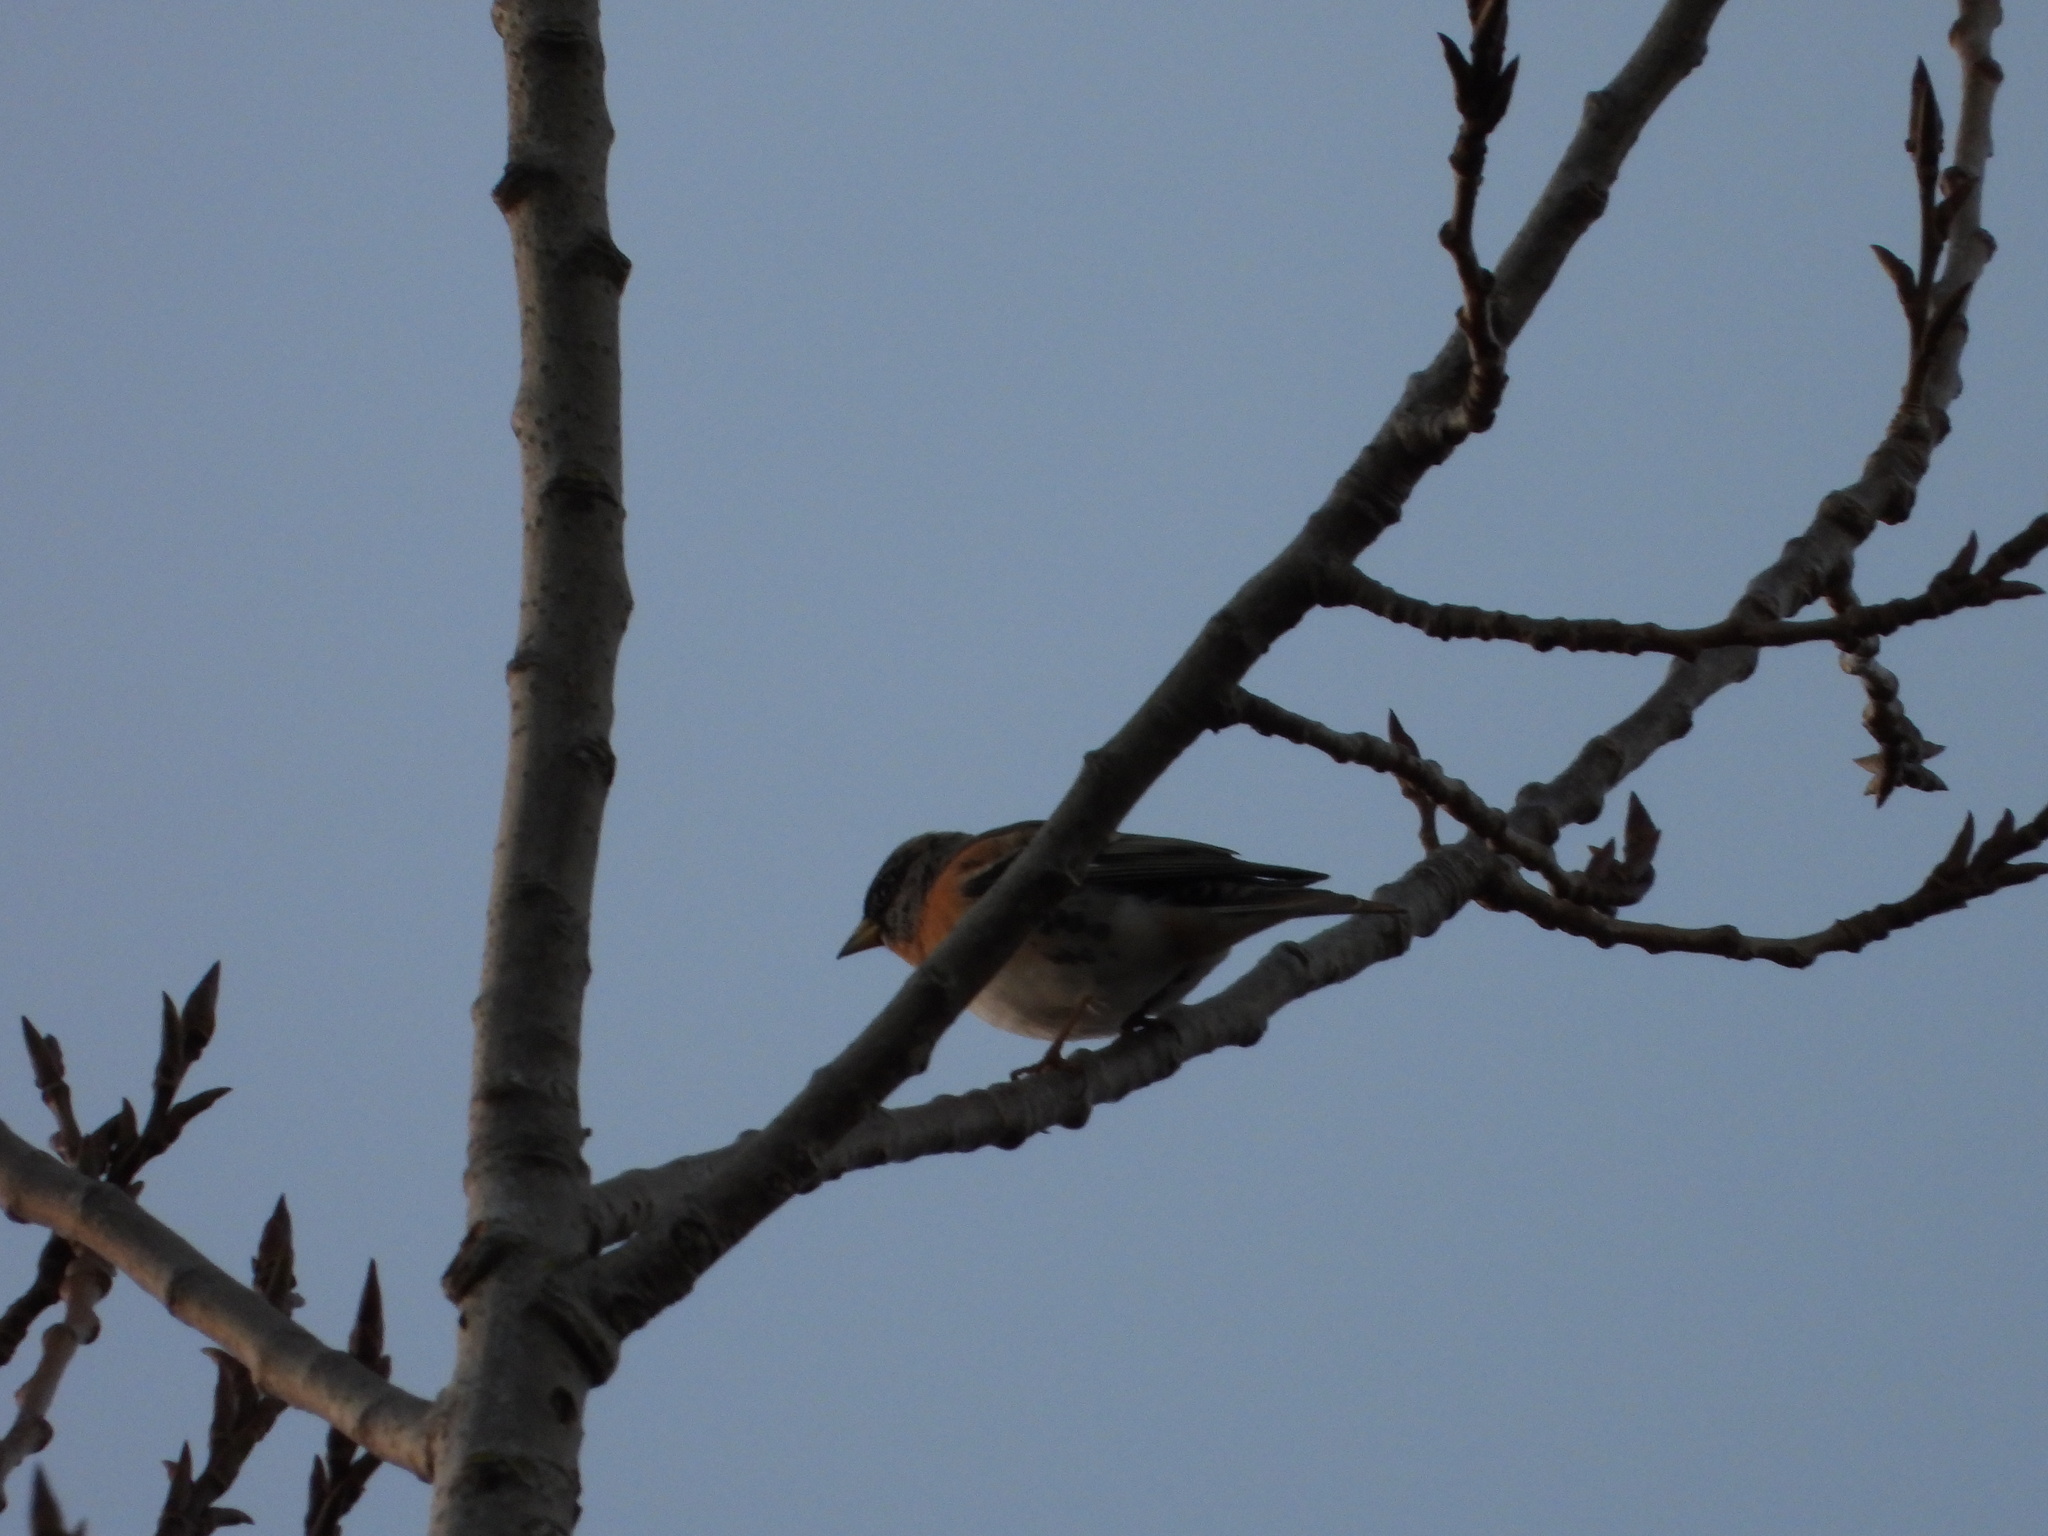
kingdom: Animalia
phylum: Chordata
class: Aves
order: Passeriformes
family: Fringillidae
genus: Fringilla
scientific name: Fringilla montifringilla
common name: Brambling
